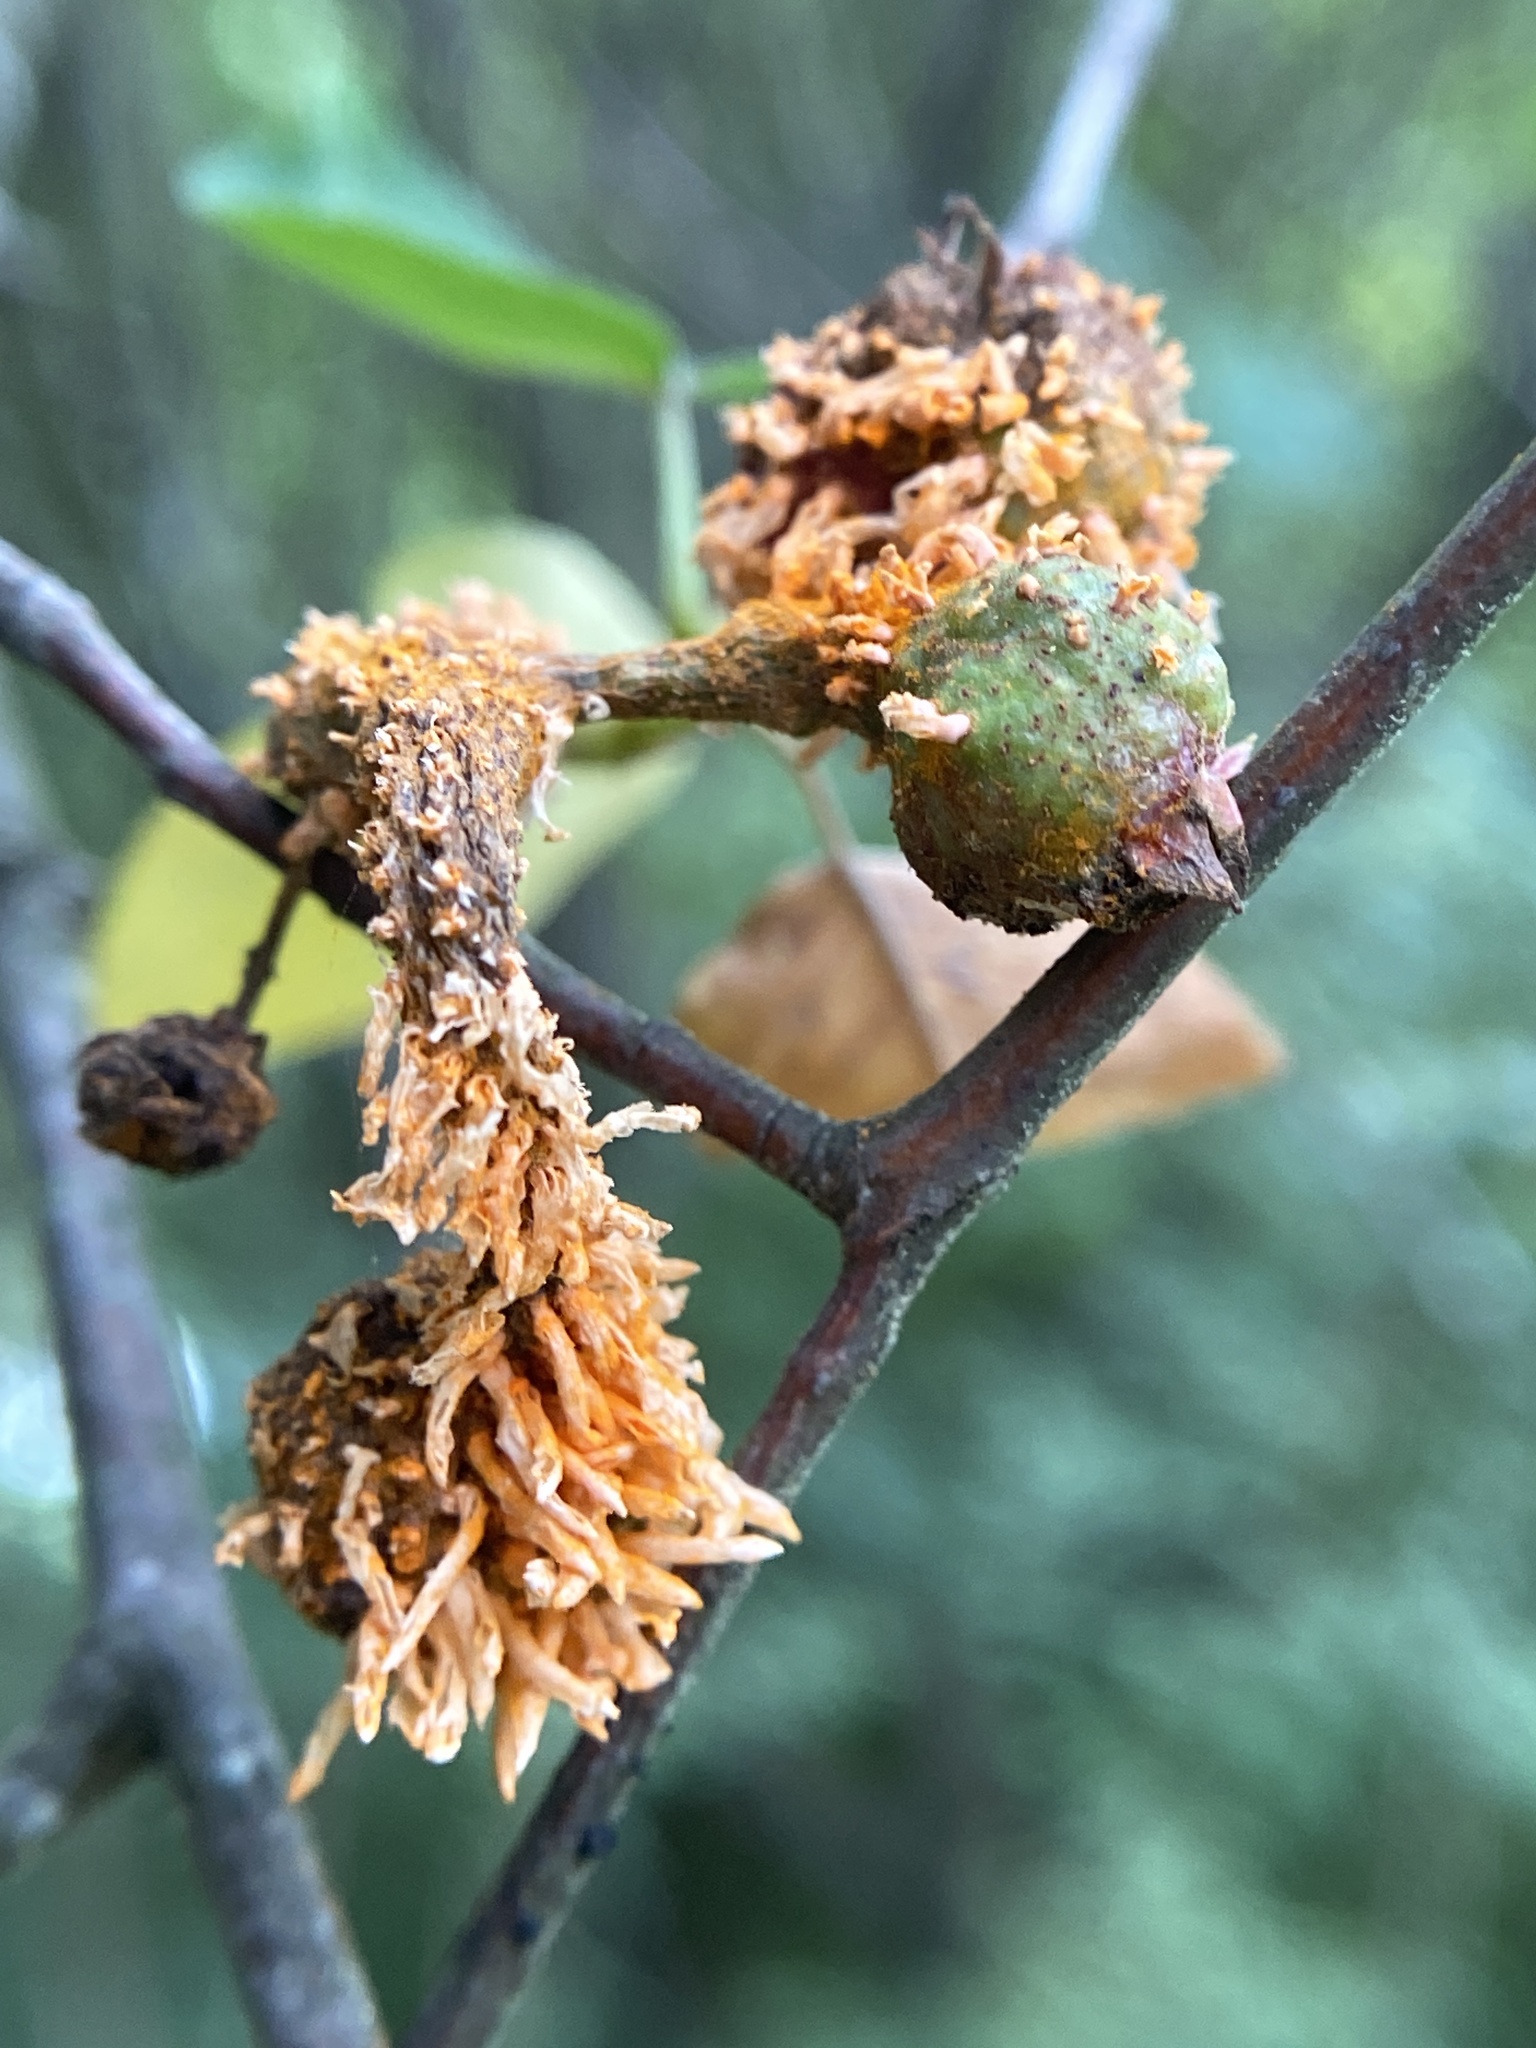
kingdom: Fungi
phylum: Basidiomycota
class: Pucciniomycetes
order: Pucciniales
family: Gymnosporangiaceae
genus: Gymnosporangium
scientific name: Gymnosporangium clavipes
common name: Quince rust
